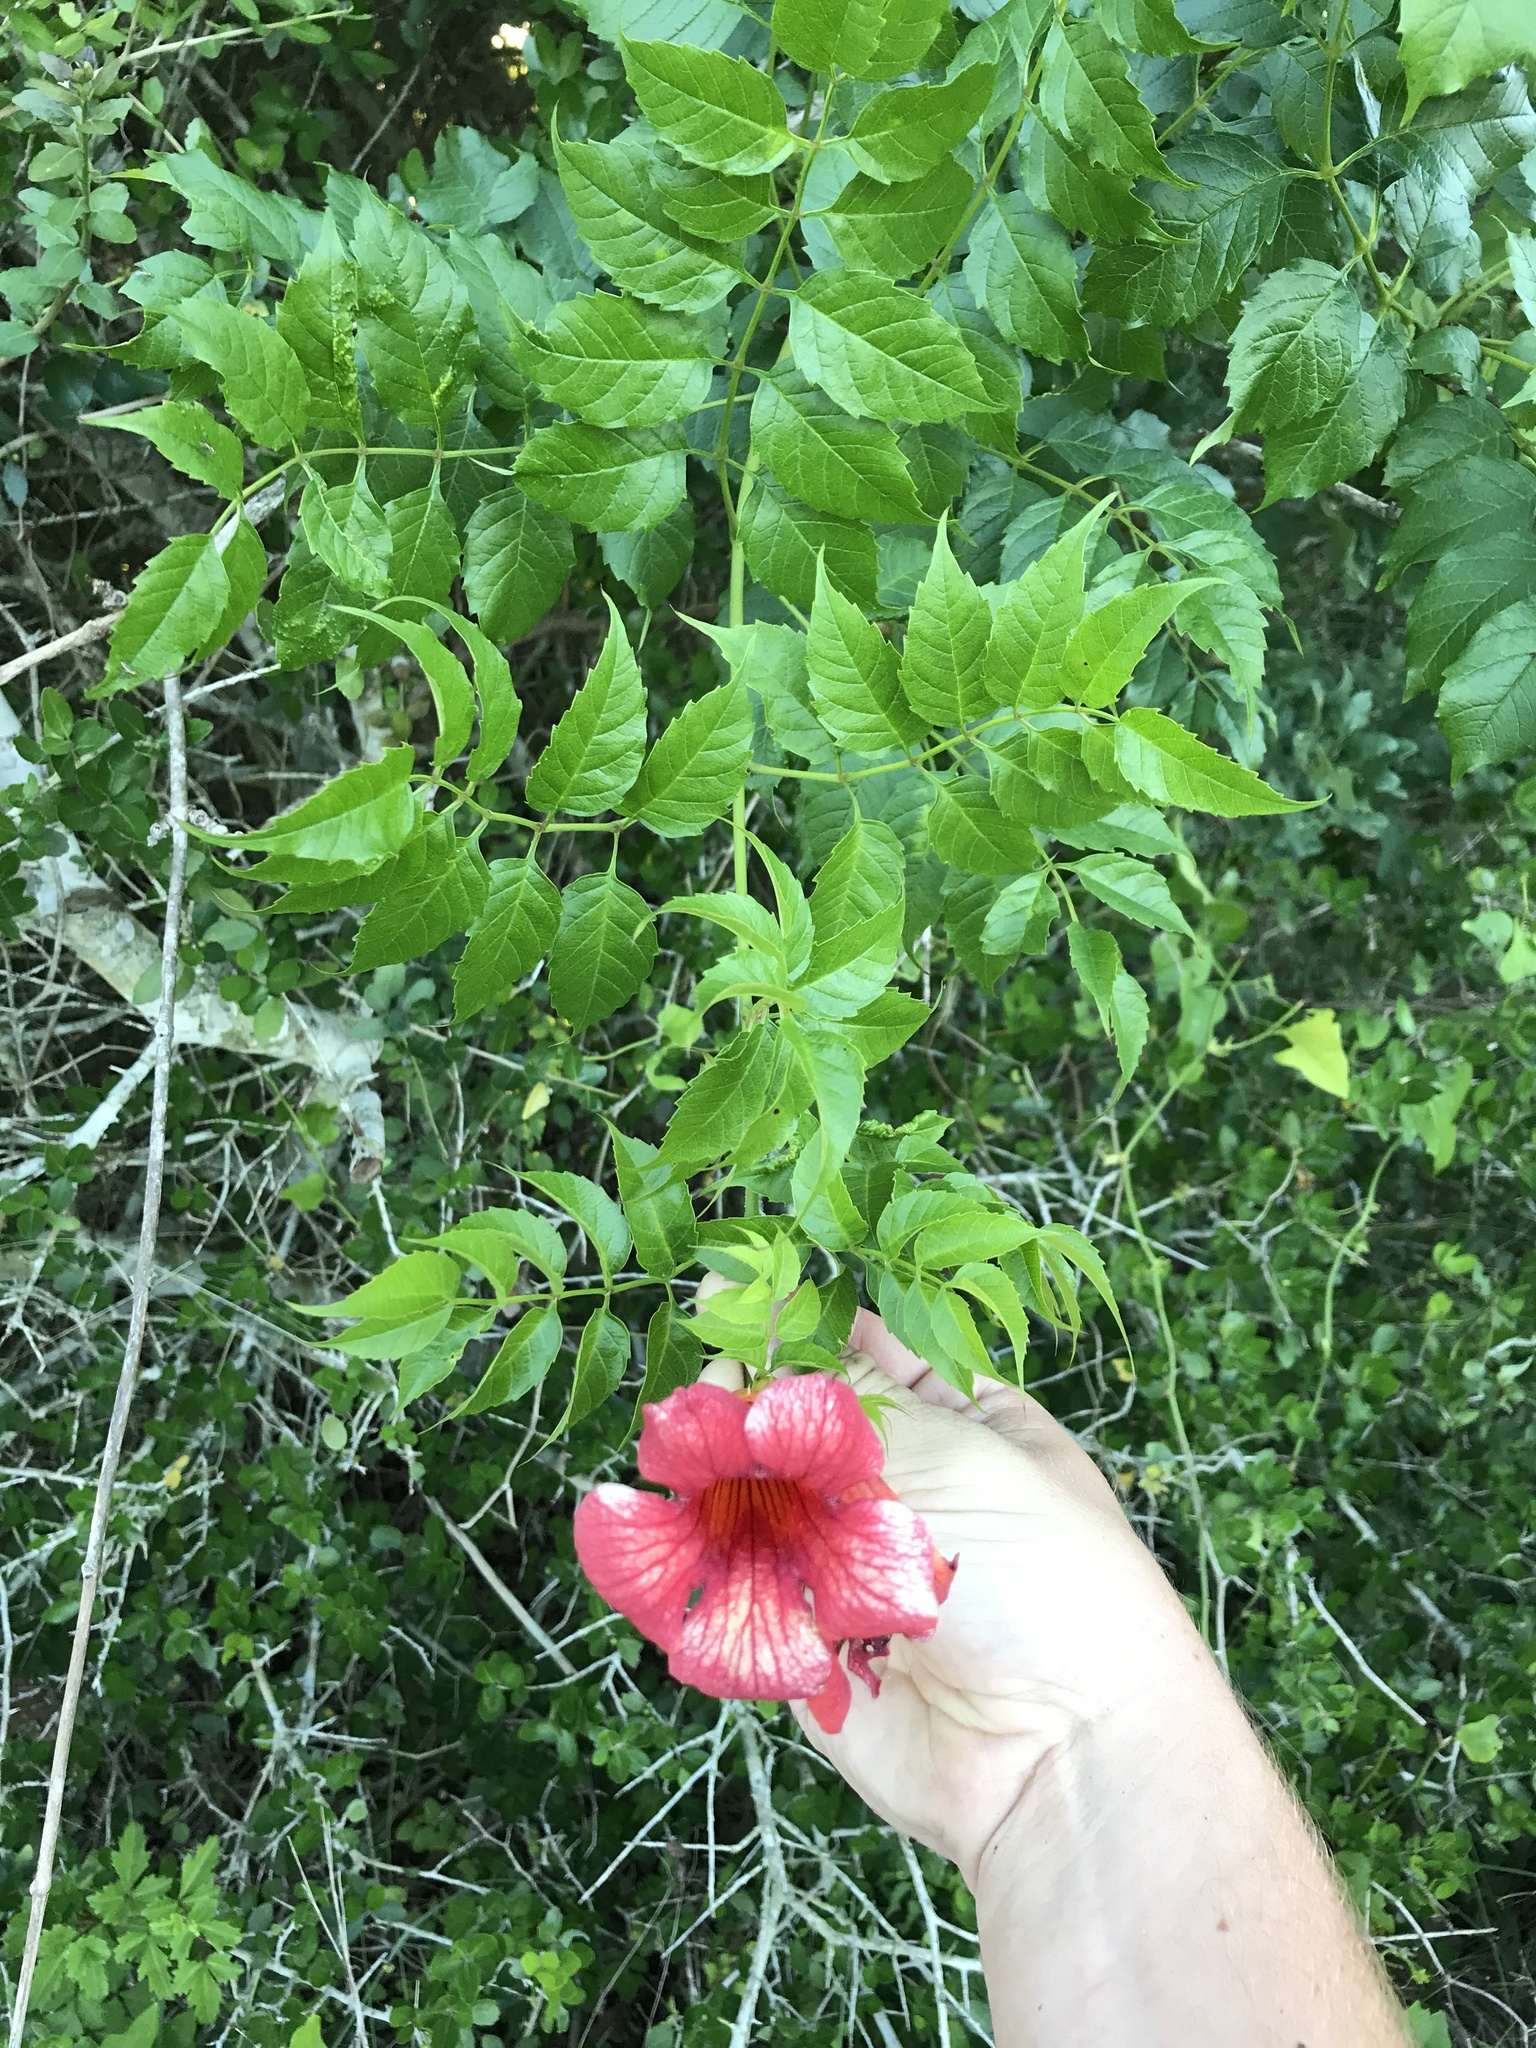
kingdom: Plantae
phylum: Tracheophyta
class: Magnoliopsida
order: Lamiales
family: Bignoniaceae
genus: Campsis
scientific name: Campsis radicans
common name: Trumpet-creeper
